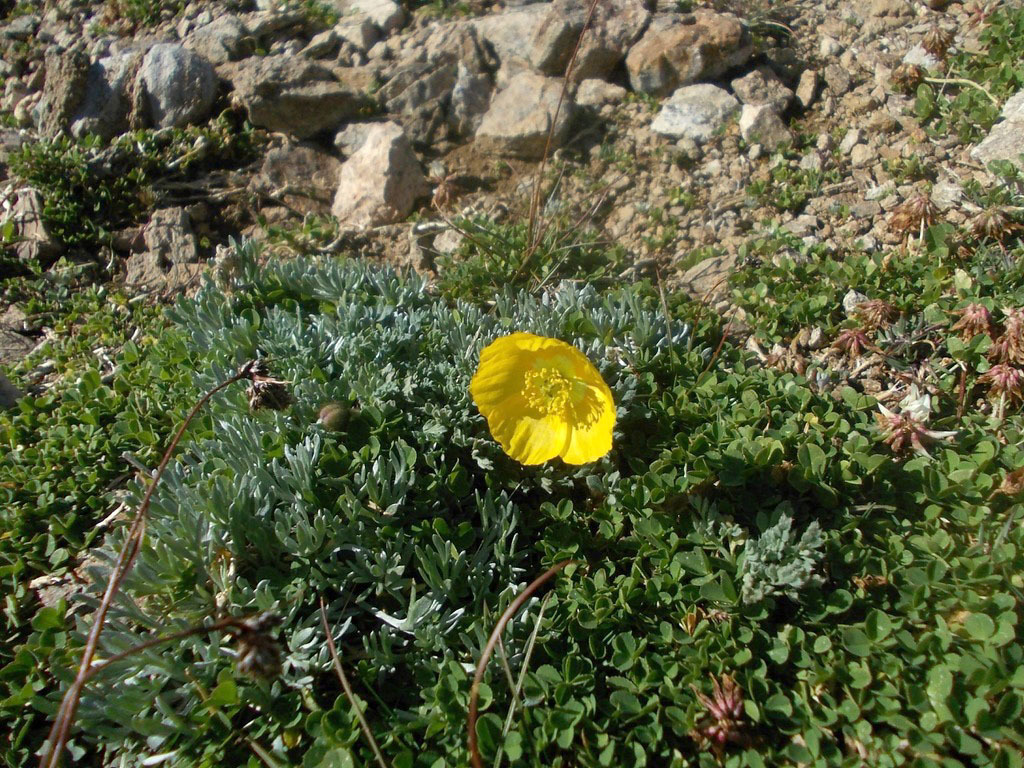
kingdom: Plantae
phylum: Tracheophyta
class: Magnoliopsida
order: Ranunculales
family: Papaveraceae
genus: Papaver
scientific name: Papaver alpinum
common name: Austrian poppy
